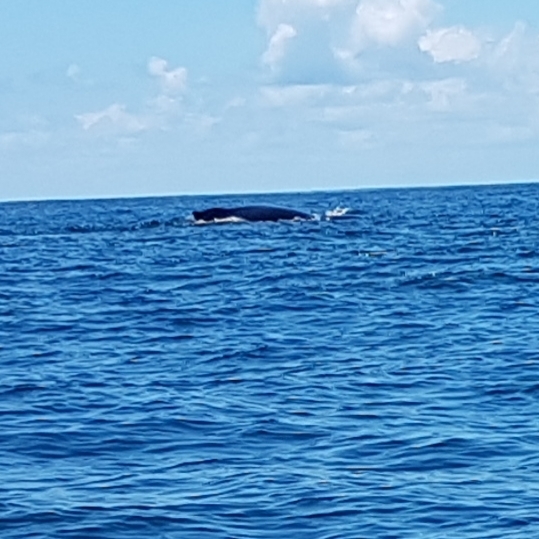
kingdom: Animalia
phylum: Chordata
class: Mammalia
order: Cetacea
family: Balaenopteridae
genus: Megaptera
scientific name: Megaptera novaeangliae
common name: Humpback whale
